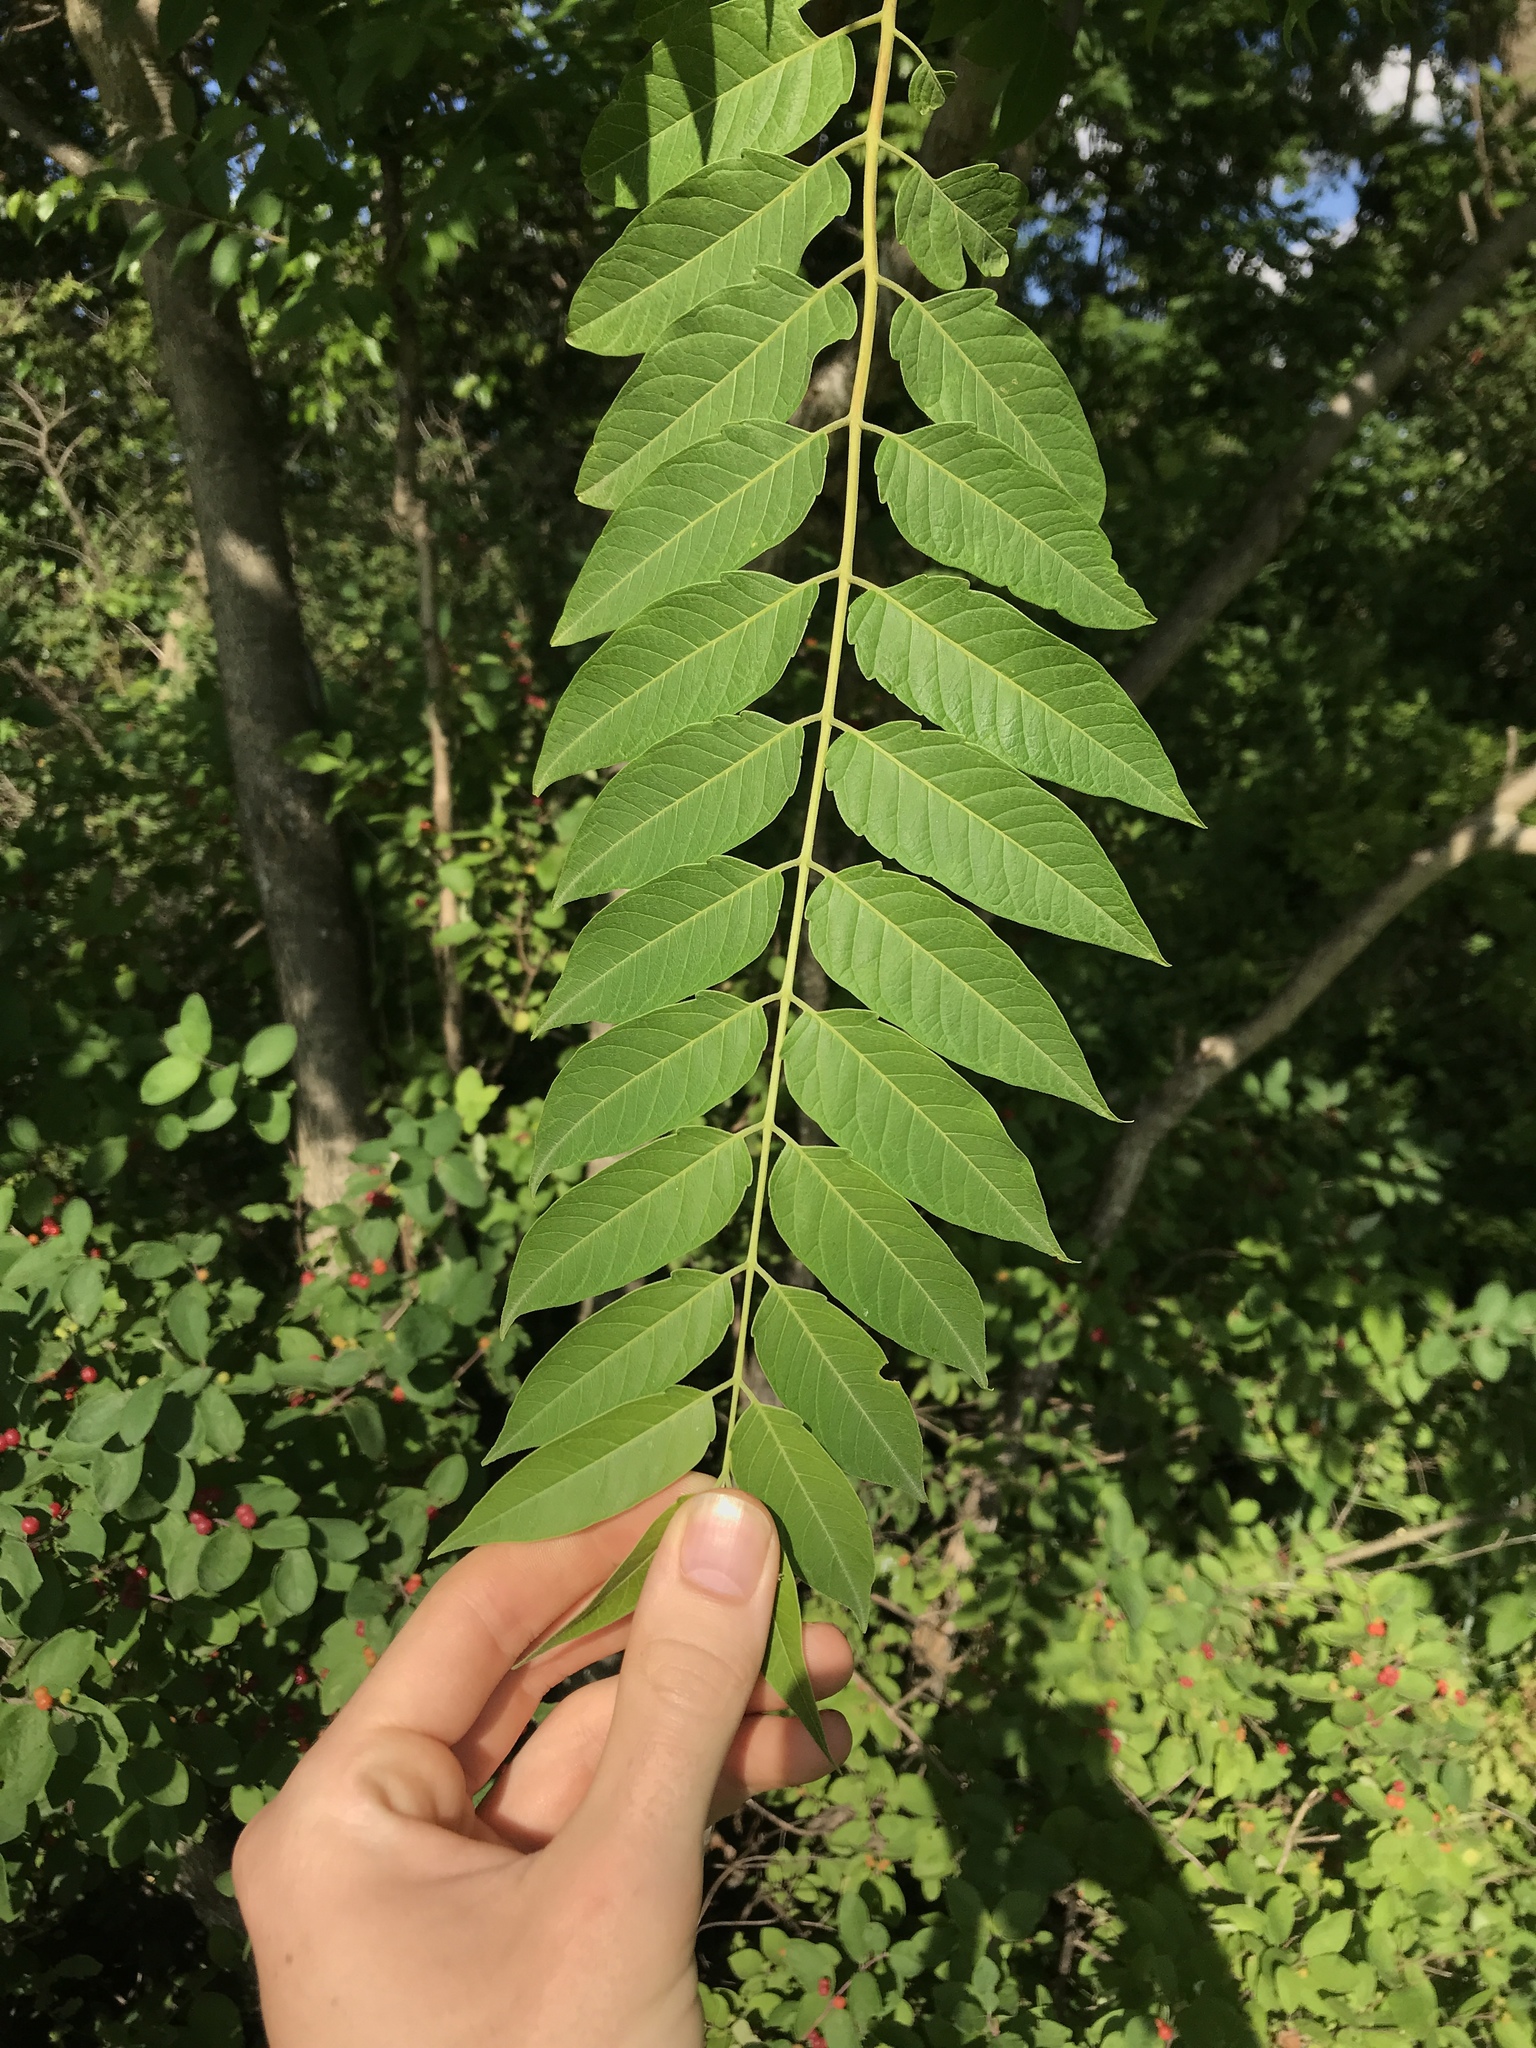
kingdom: Plantae
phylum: Tracheophyta
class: Magnoliopsida
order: Sapindales
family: Simaroubaceae
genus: Ailanthus
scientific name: Ailanthus altissima
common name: Tree-of-heaven
